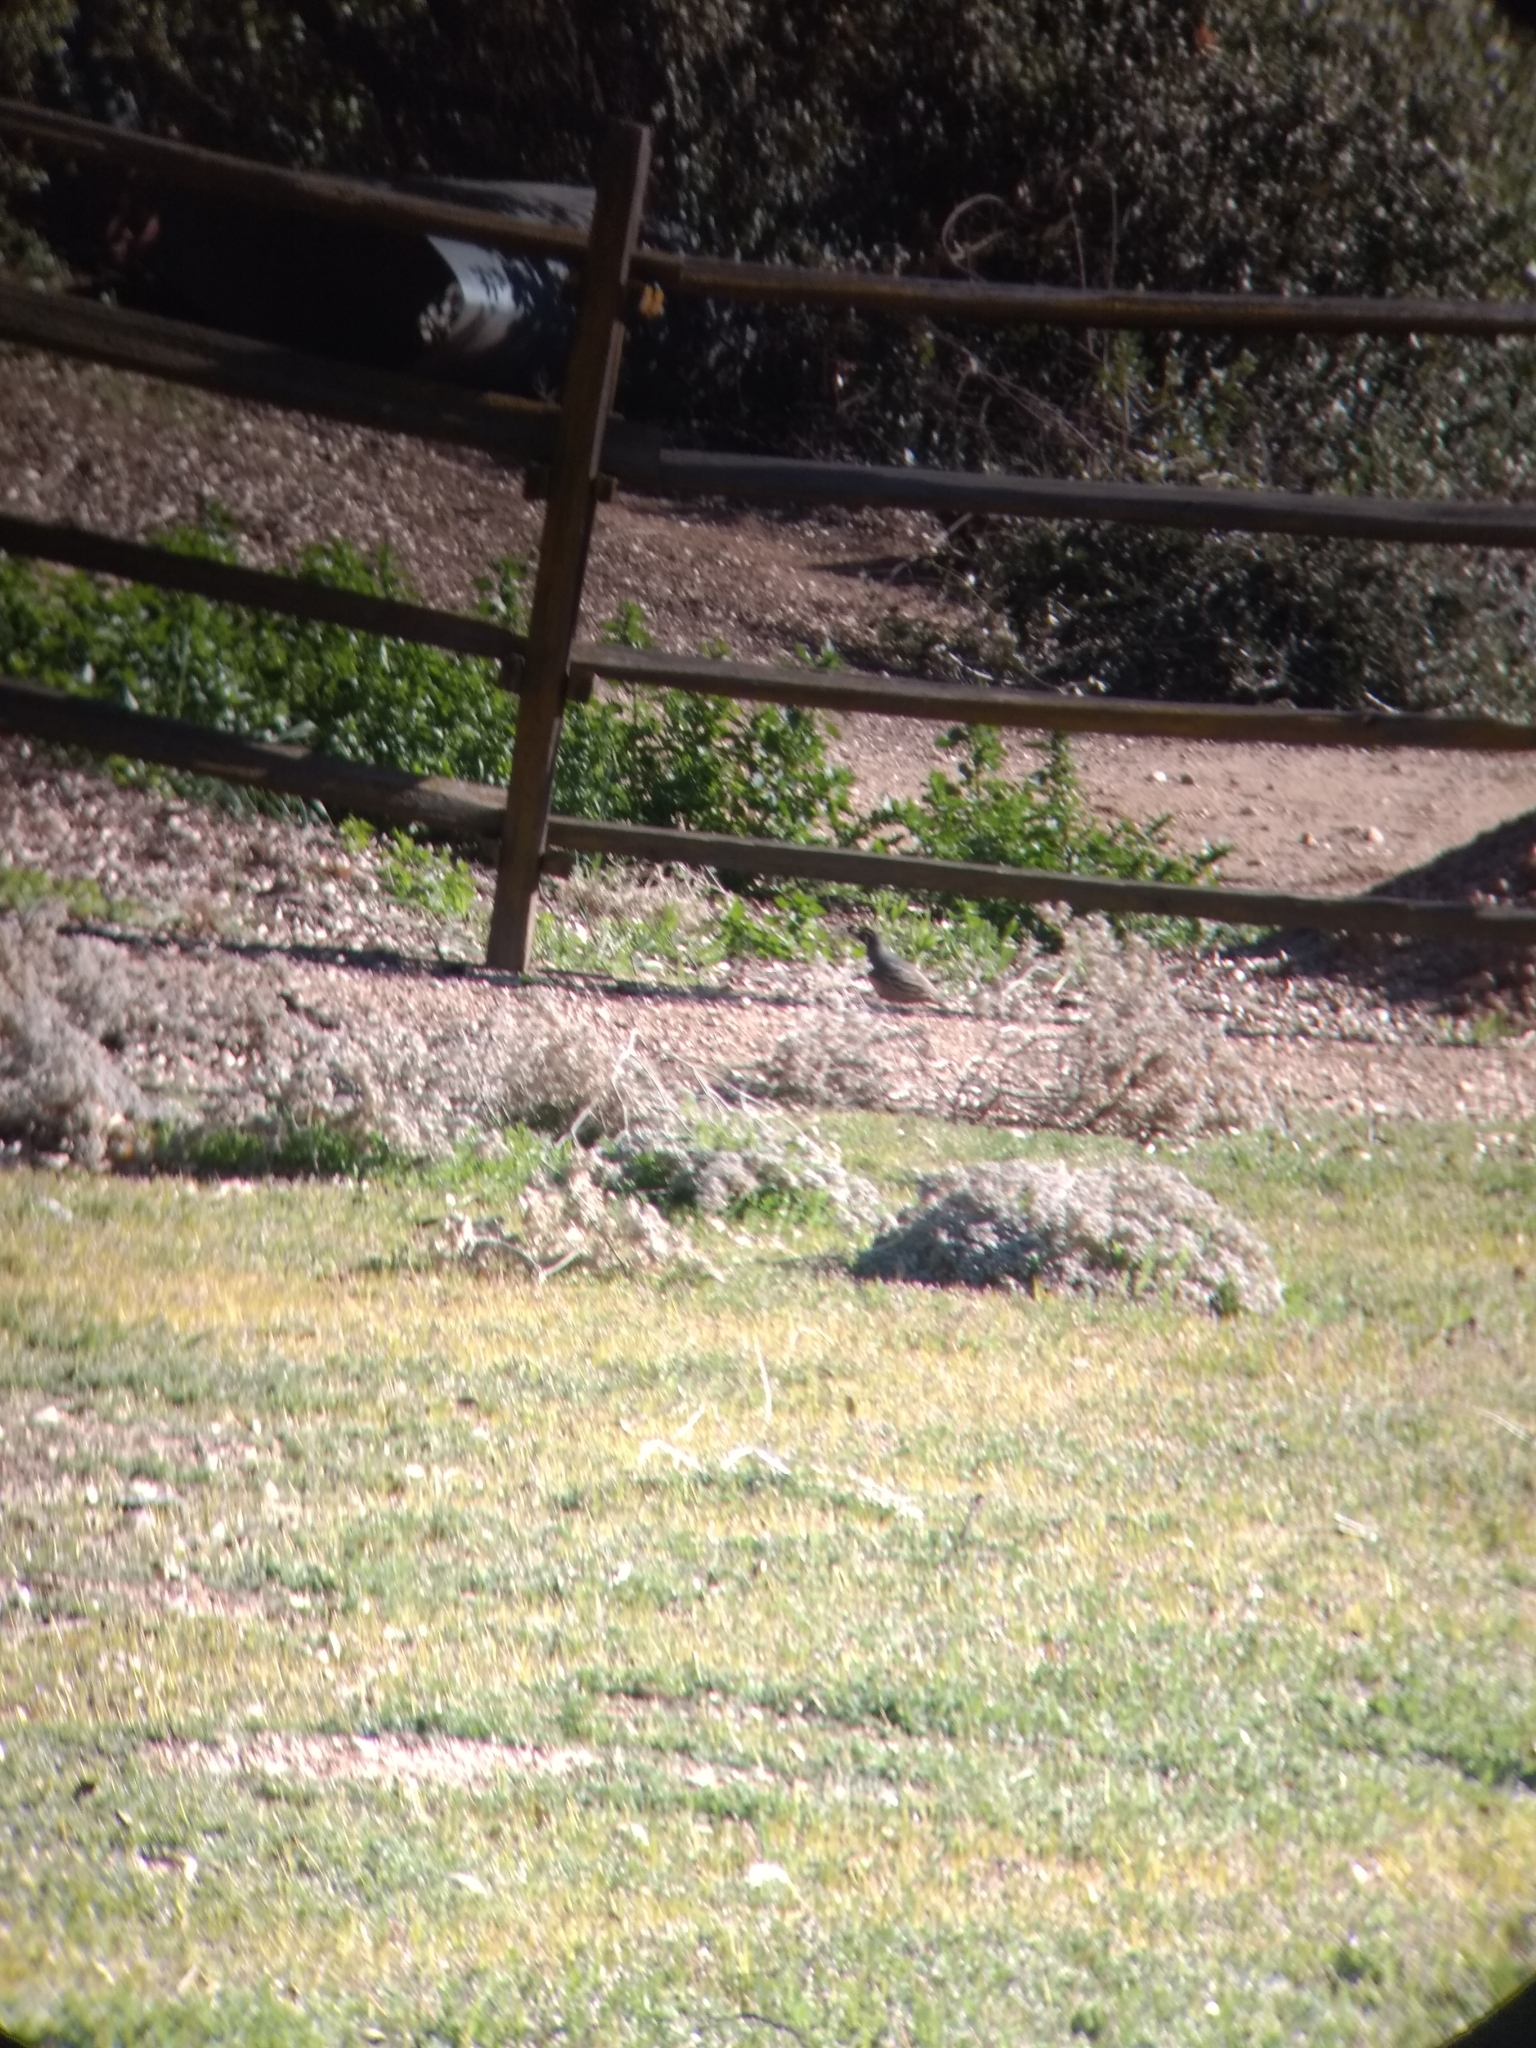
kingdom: Animalia
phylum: Chordata
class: Aves
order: Galliformes
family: Odontophoridae
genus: Callipepla
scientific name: Callipepla californica
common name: California quail
